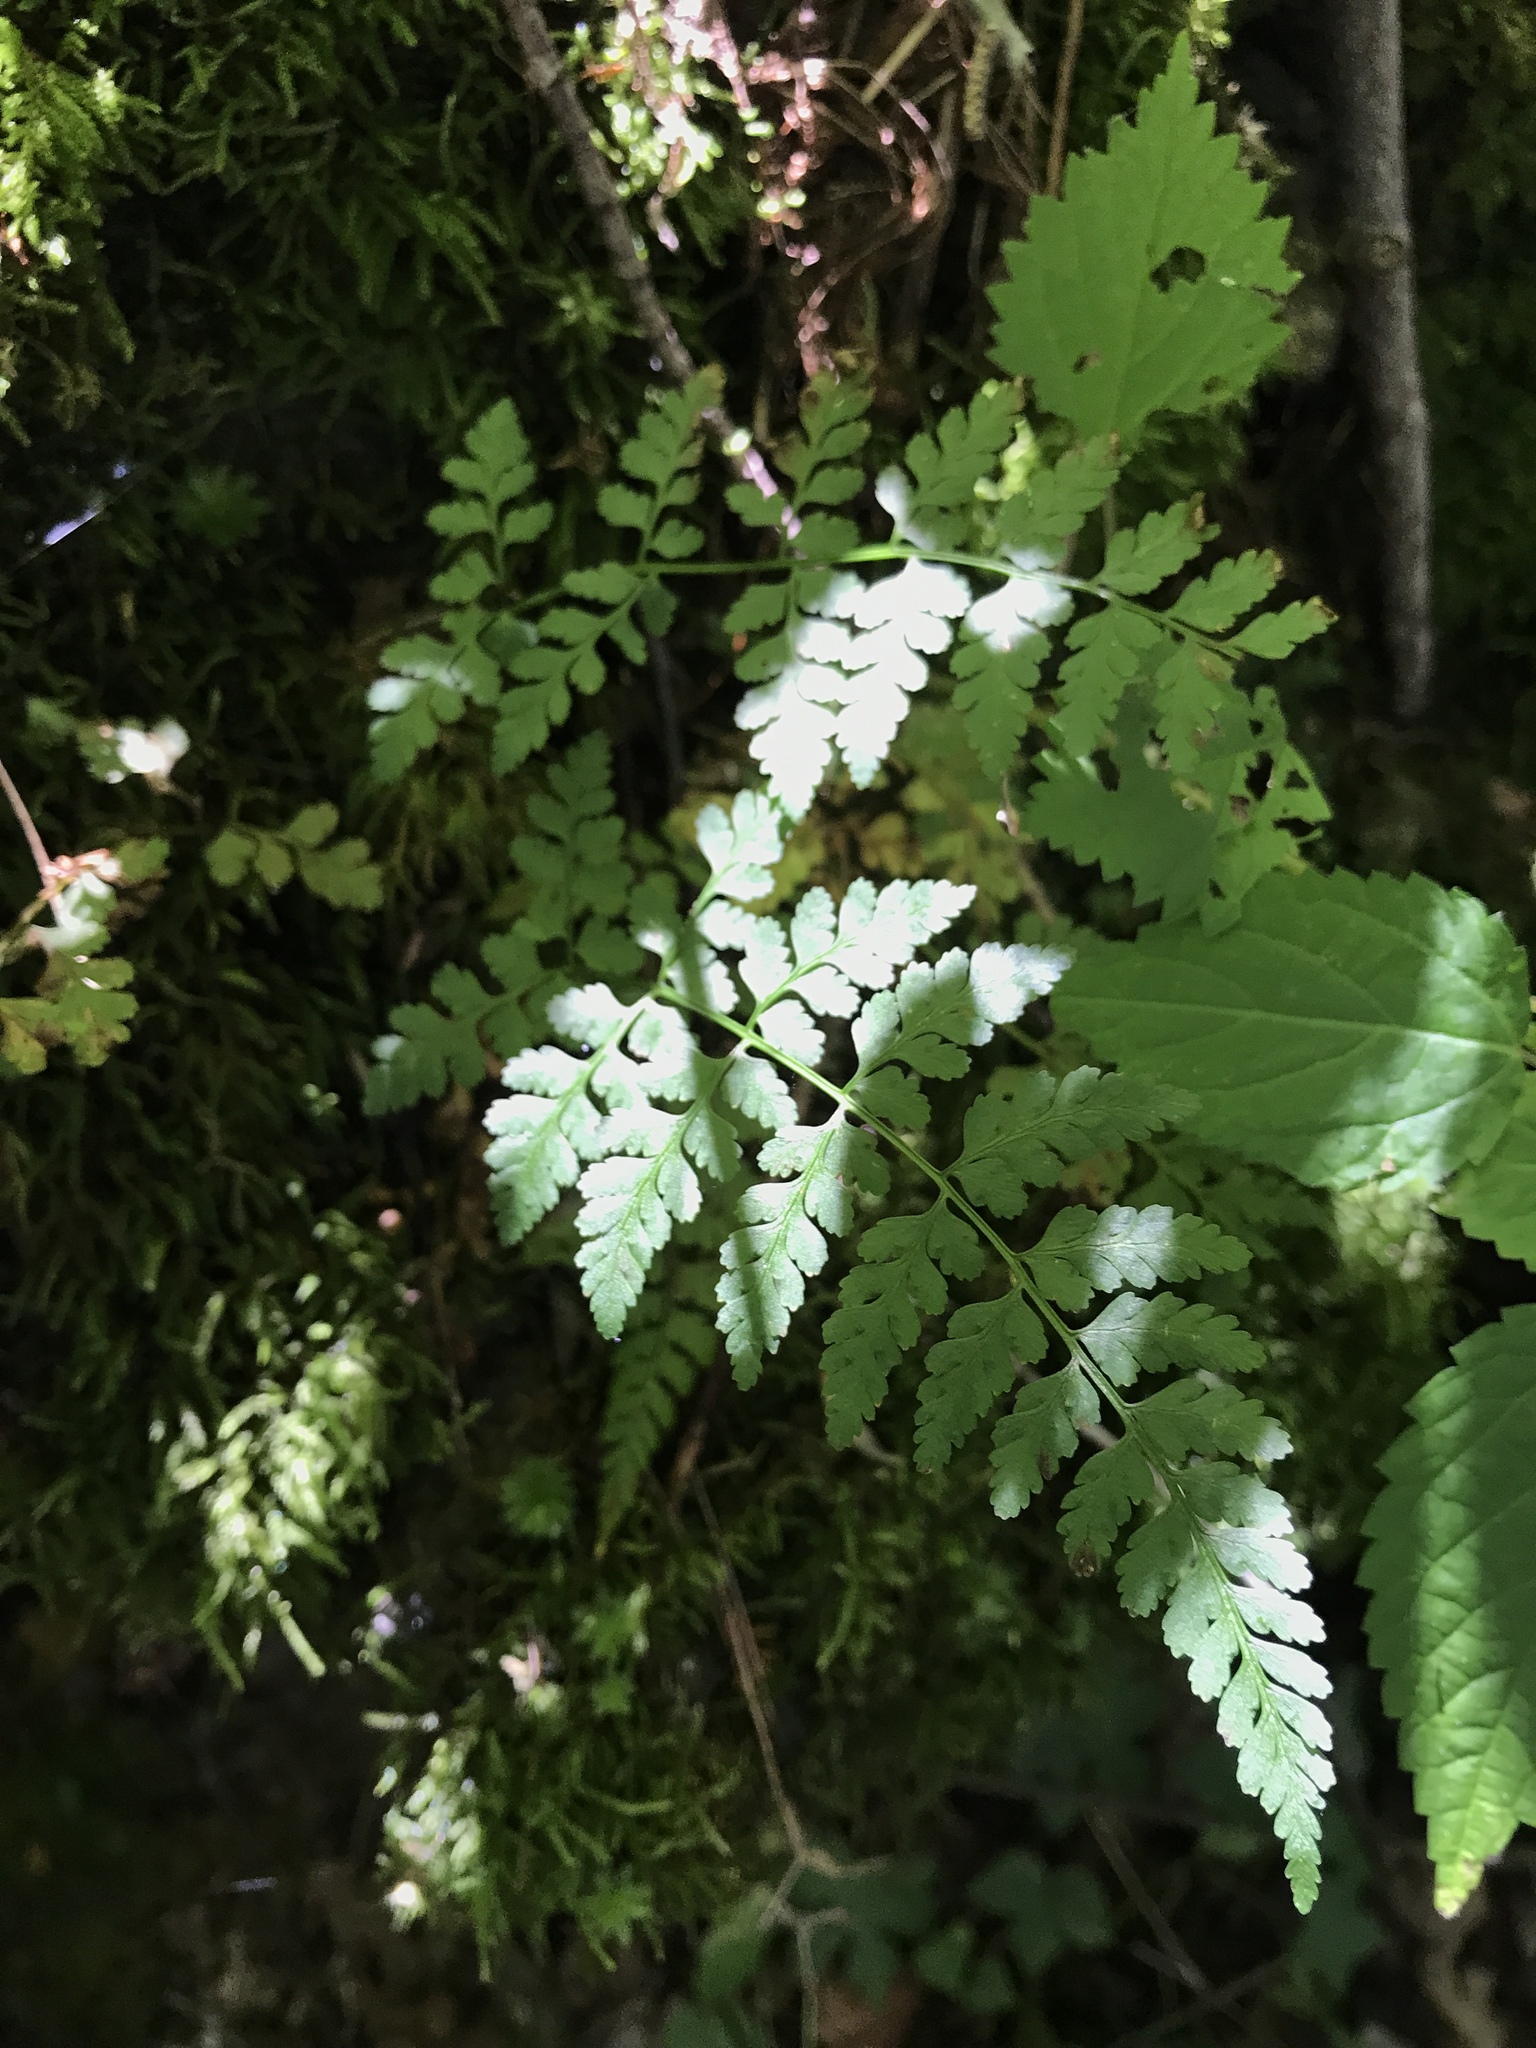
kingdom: Plantae
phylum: Tracheophyta
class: Polypodiopsida
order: Polypodiales
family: Cystopteridaceae
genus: Cystopteris
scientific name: Cystopteris protrusa
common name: Lowland brittle fern
